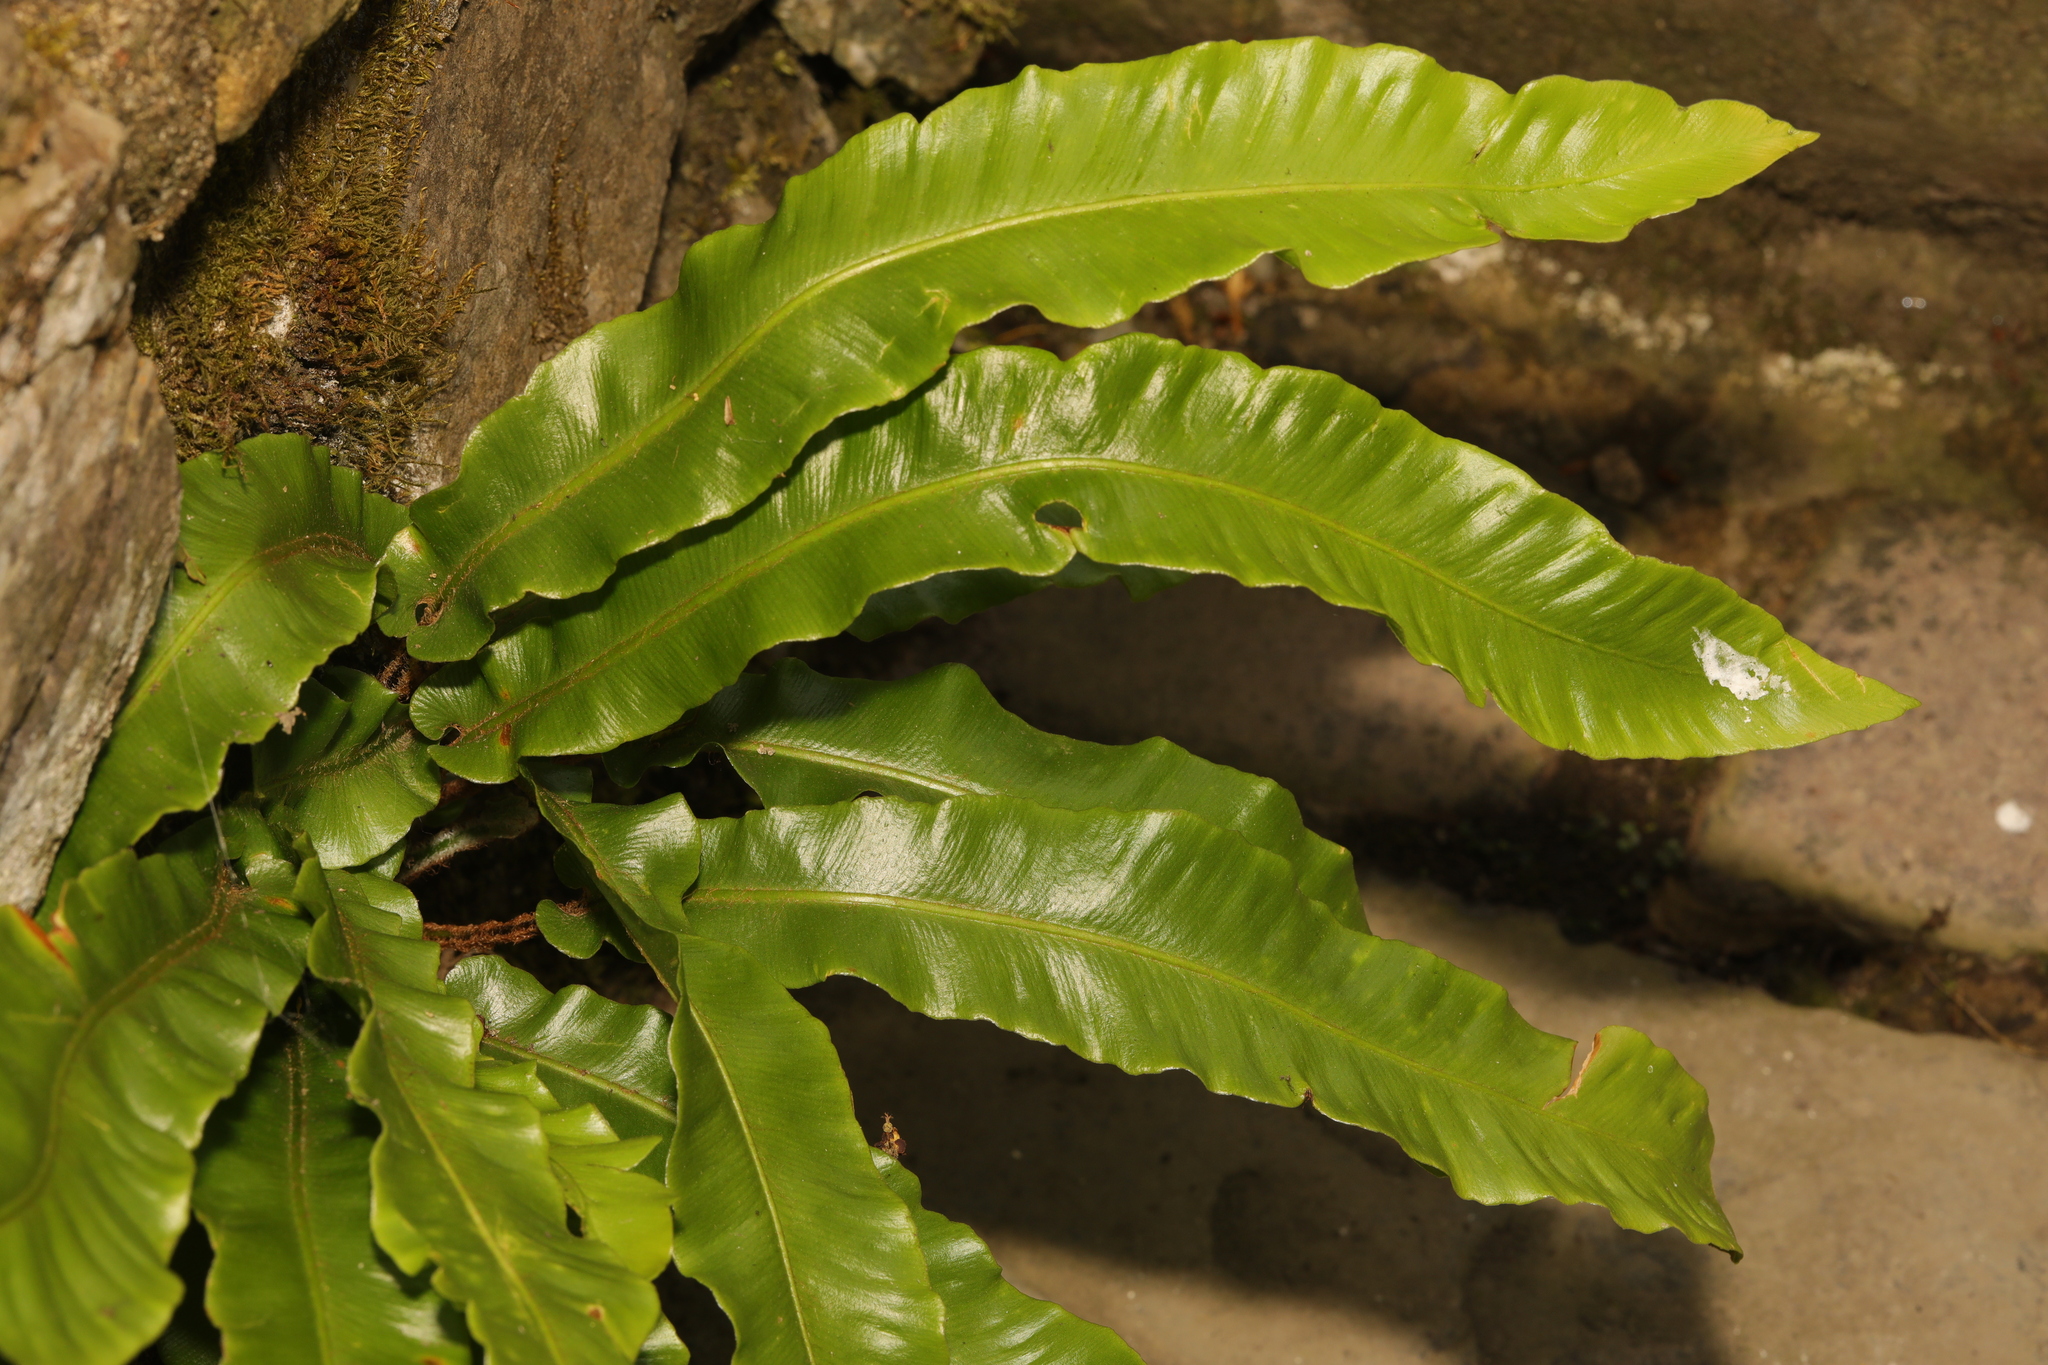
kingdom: Plantae
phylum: Tracheophyta
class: Polypodiopsida
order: Polypodiales
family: Aspleniaceae
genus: Asplenium
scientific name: Asplenium scolopendrium
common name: Hart's-tongue fern
